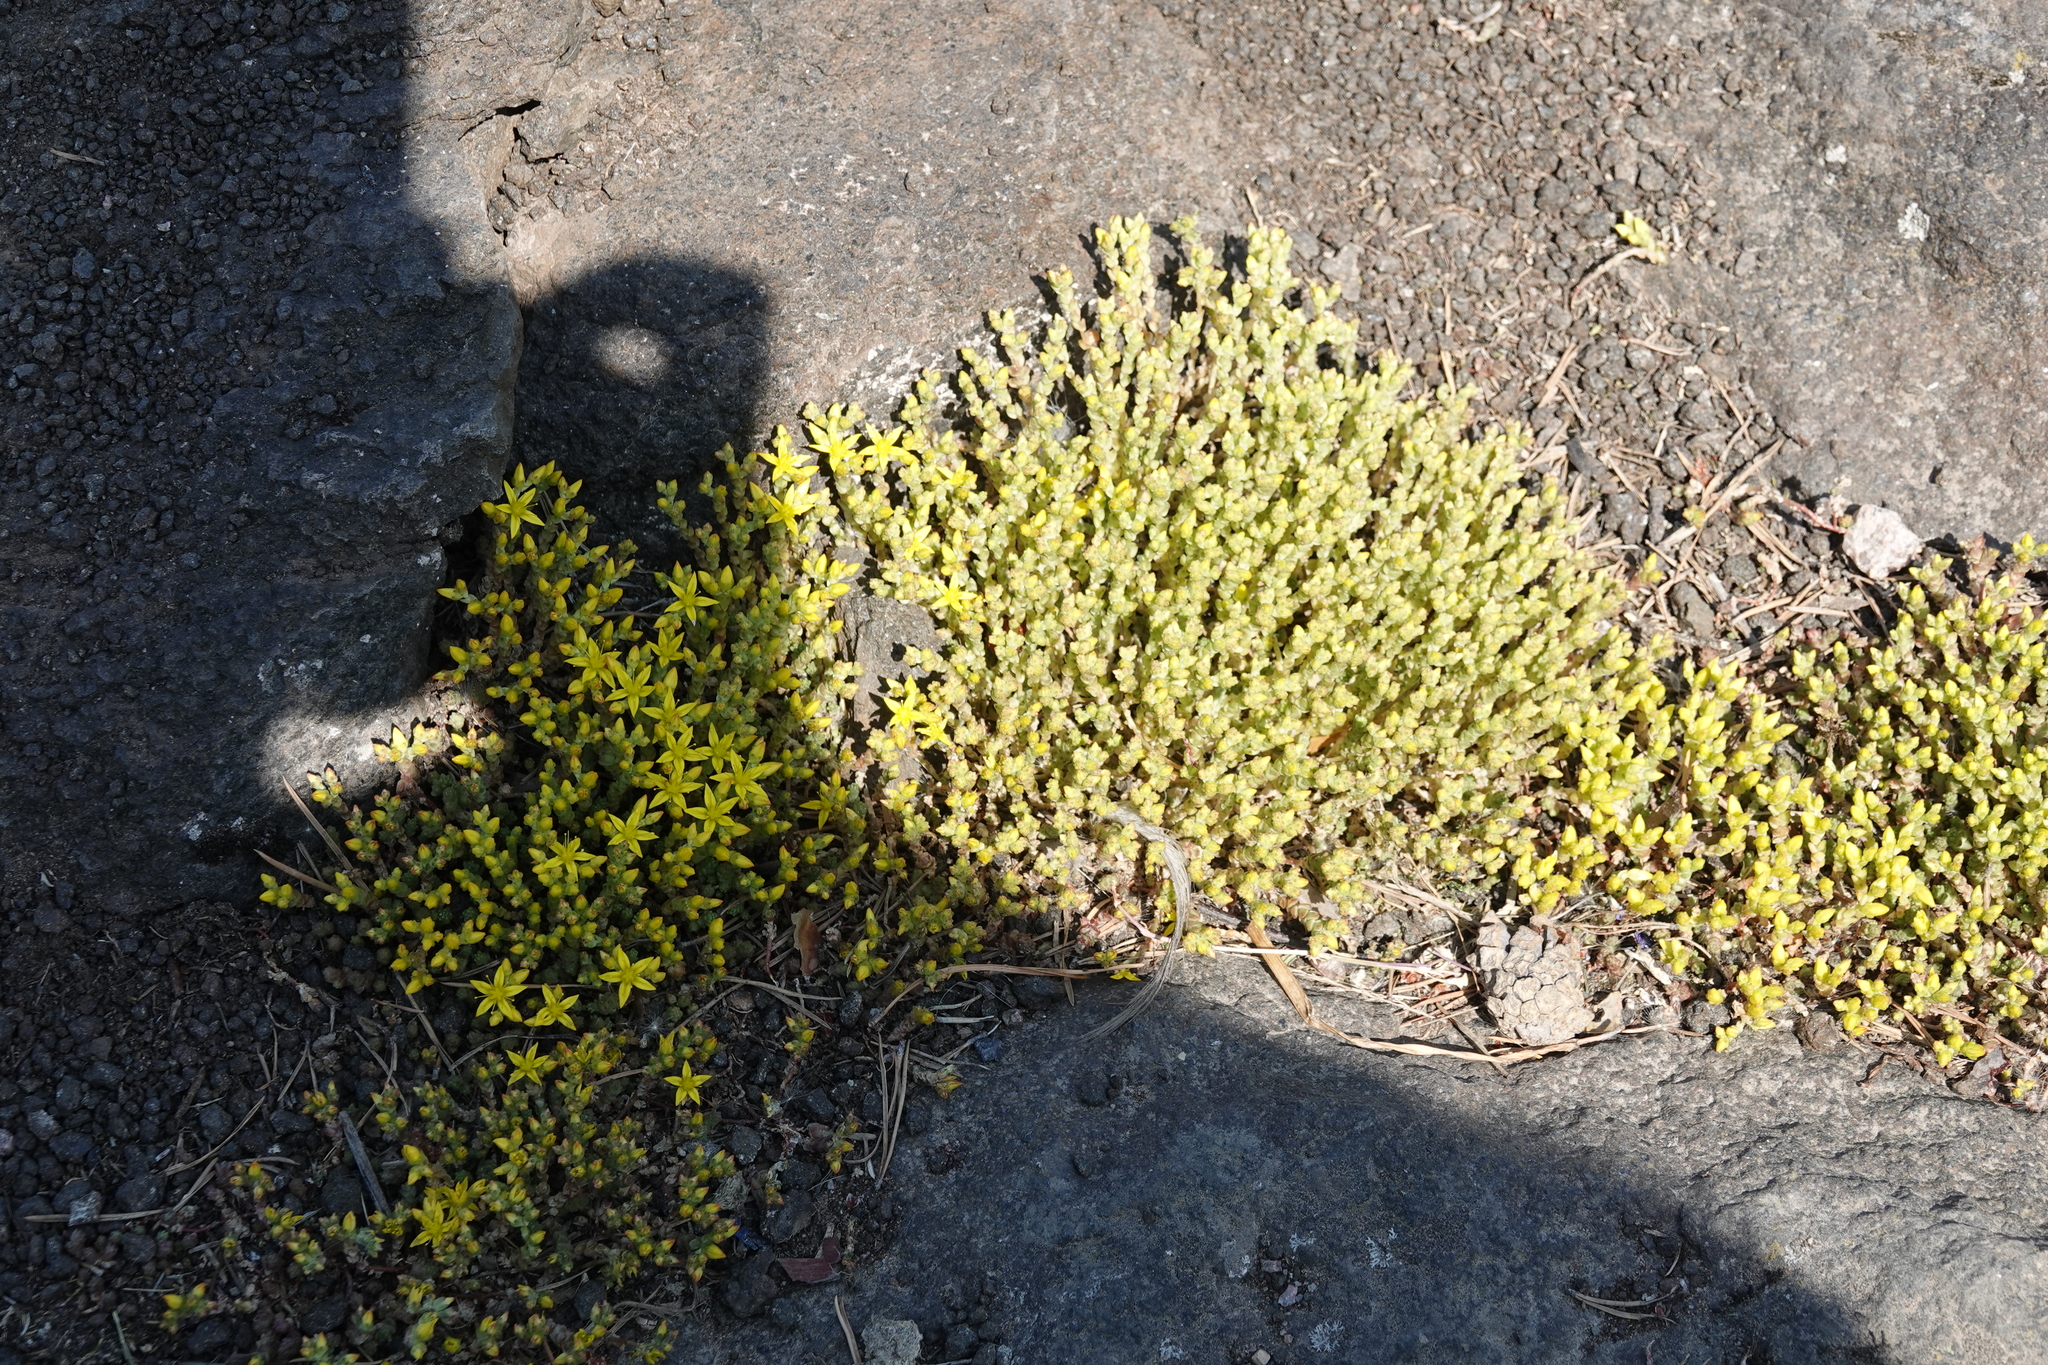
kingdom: Plantae
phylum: Tracheophyta
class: Magnoliopsida
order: Saxifragales
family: Crassulaceae
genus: Sedum
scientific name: Sedum acre
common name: Biting stonecrop
